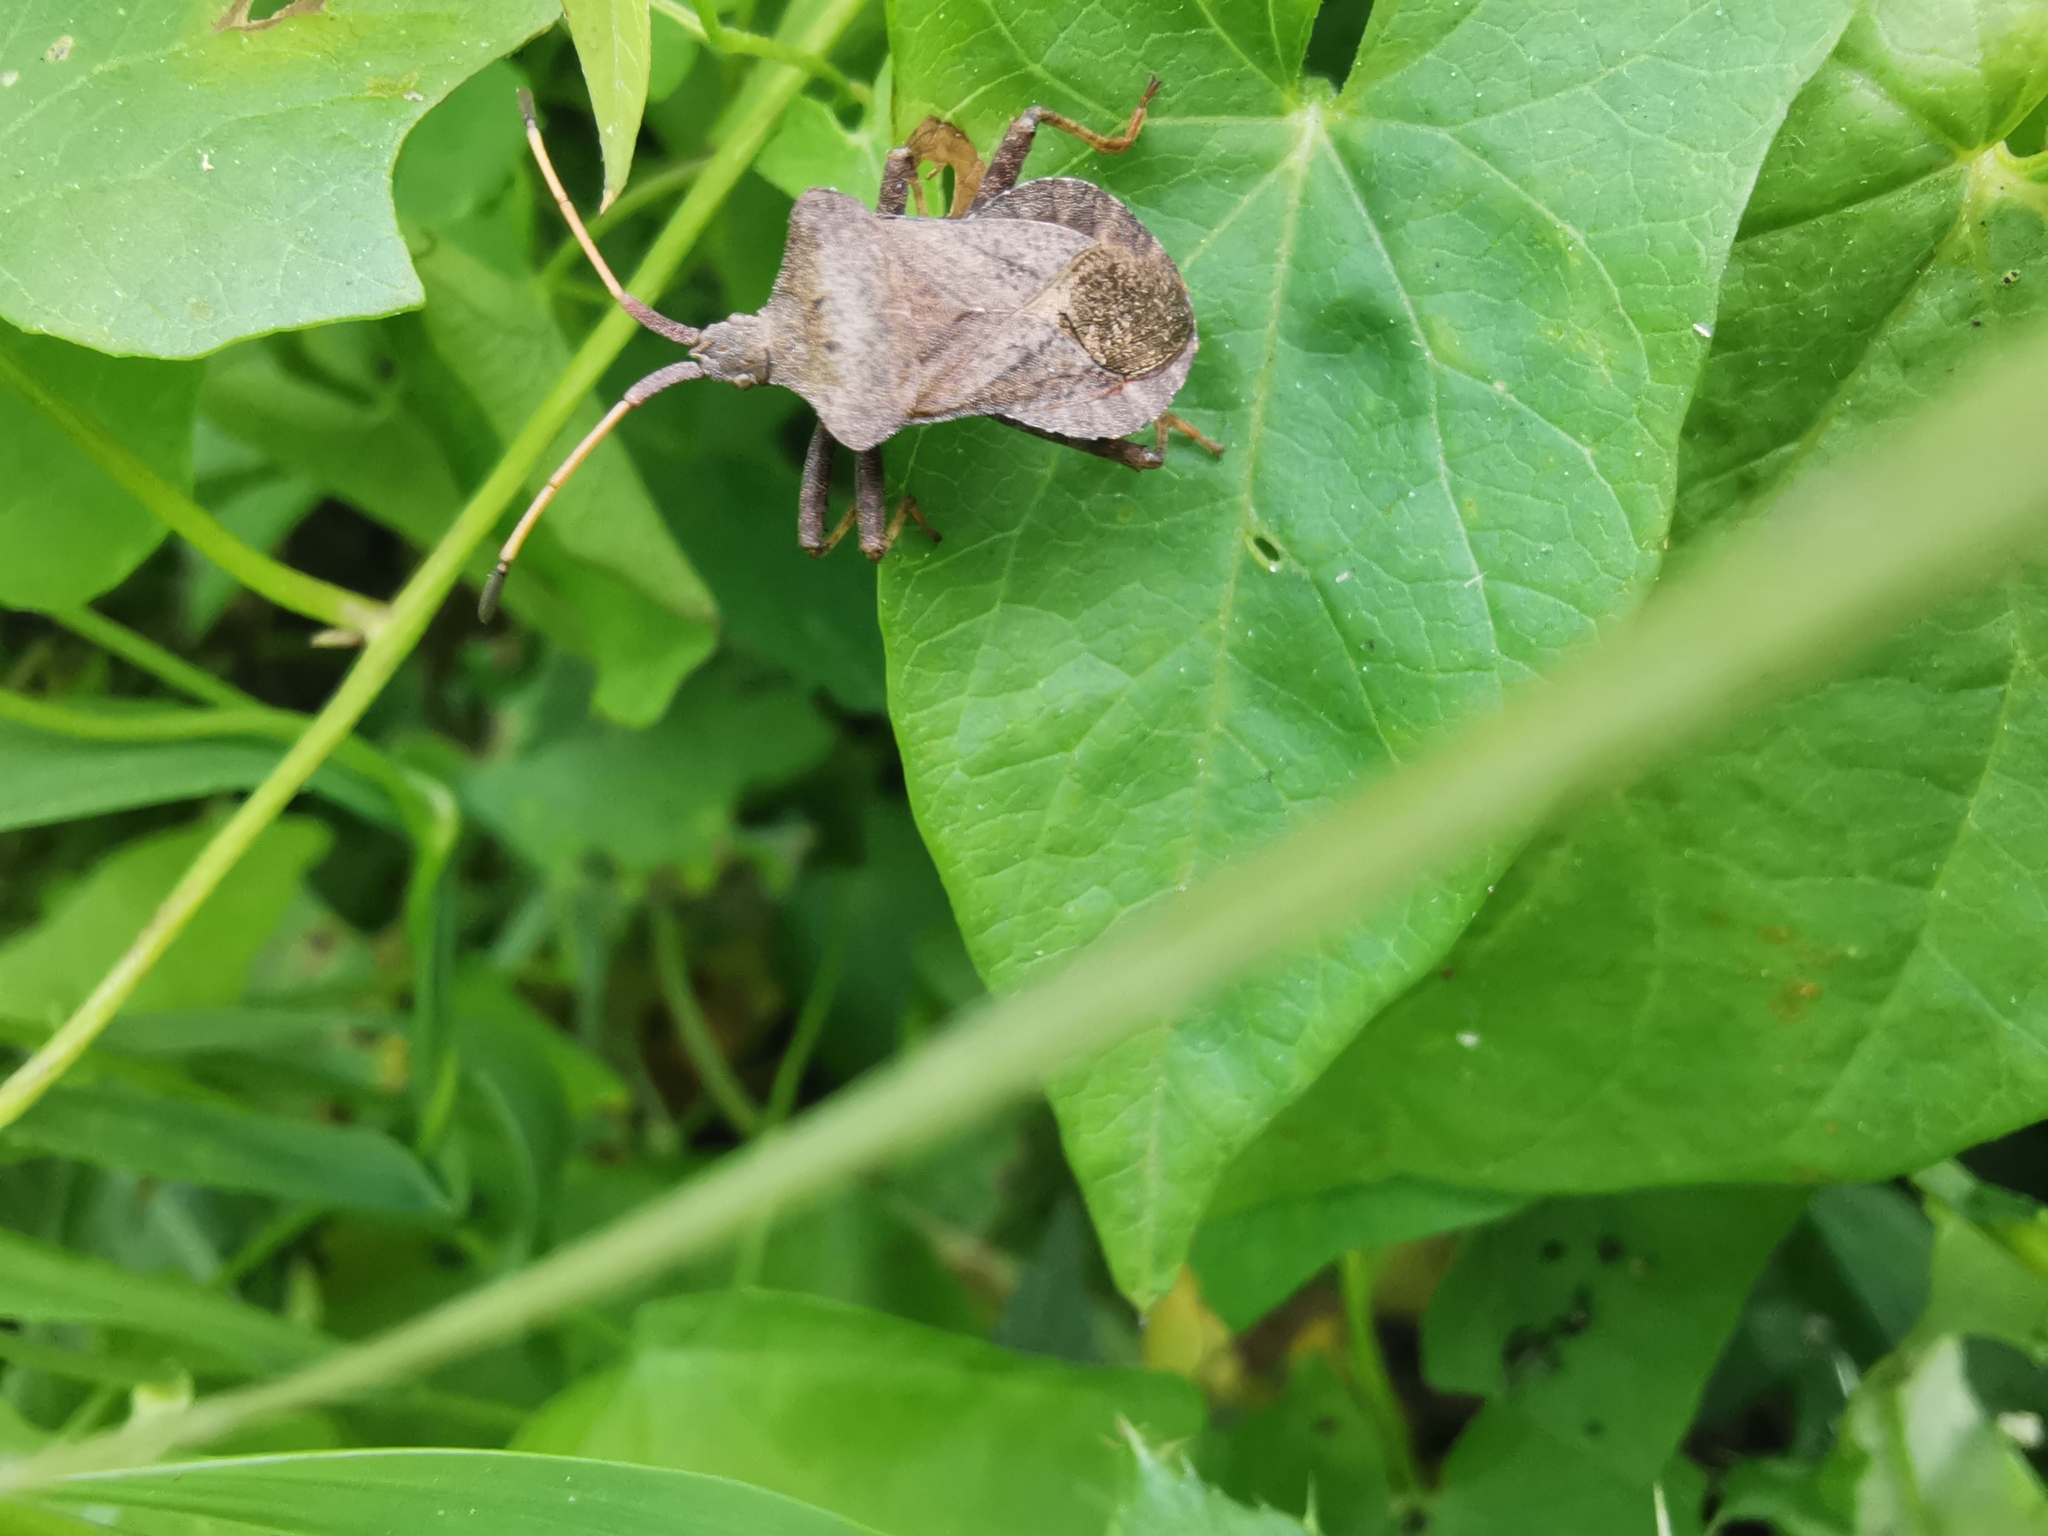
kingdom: Animalia
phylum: Arthropoda
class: Insecta
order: Hemiptera
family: Coreidae
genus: Coreus
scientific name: Coreus marginatus
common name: Dock bug
